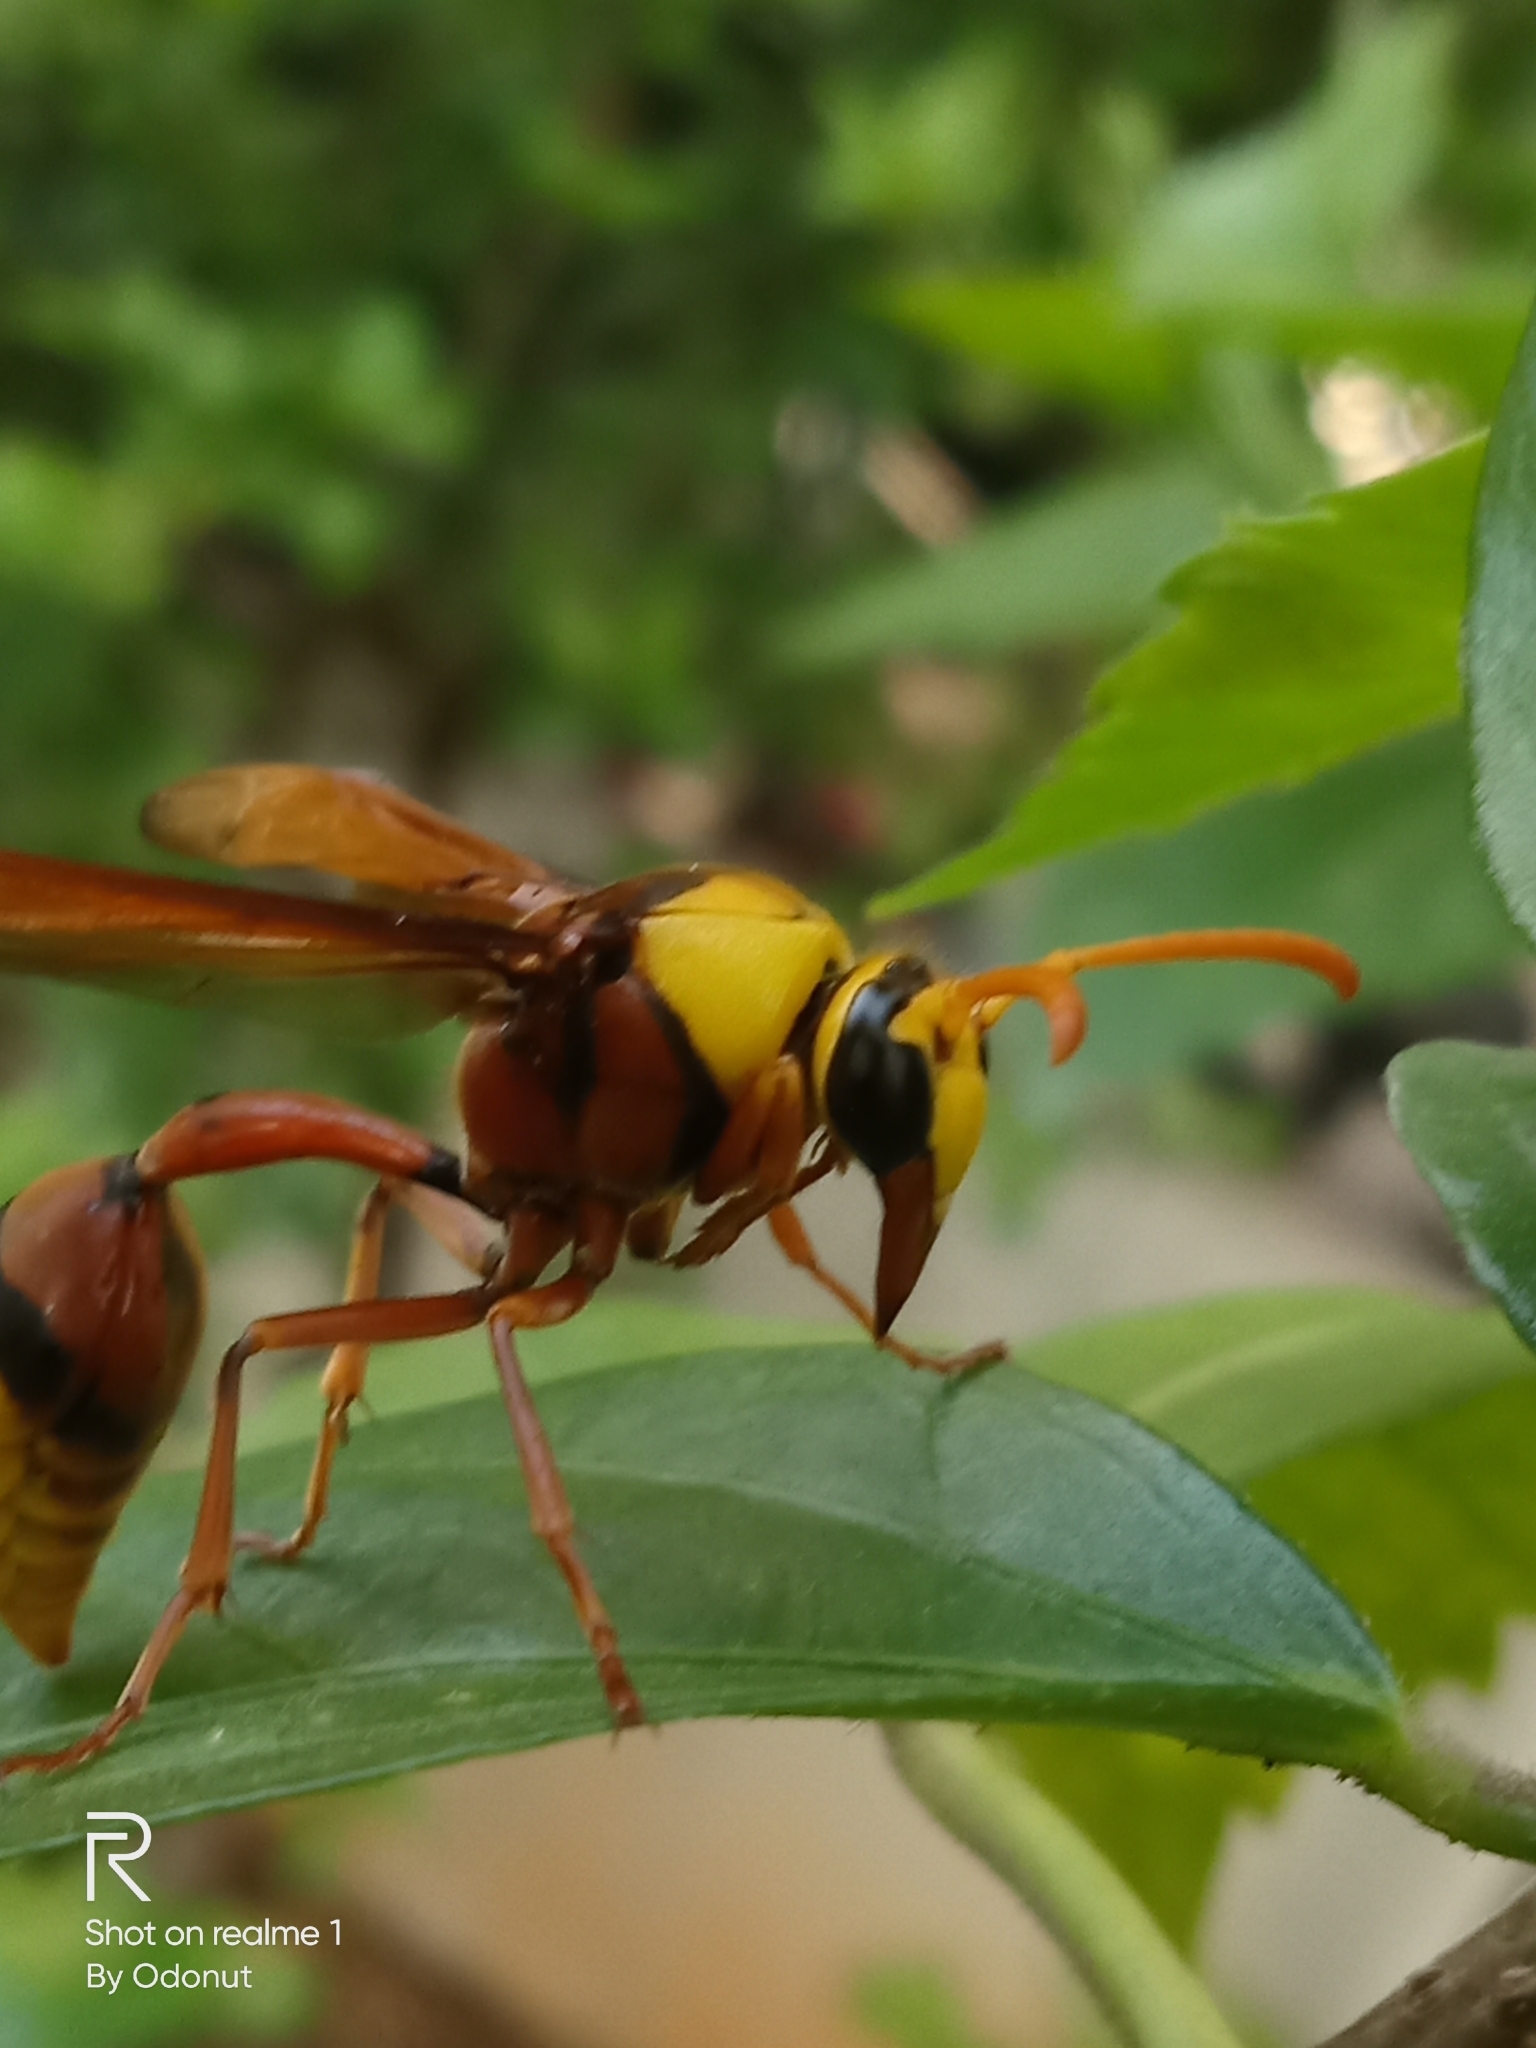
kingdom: Animalia
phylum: Arthropoda
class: Insecta
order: Hymenoptera
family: Eumenidae
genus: Delta
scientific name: Delta pyriforme
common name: Wasp
